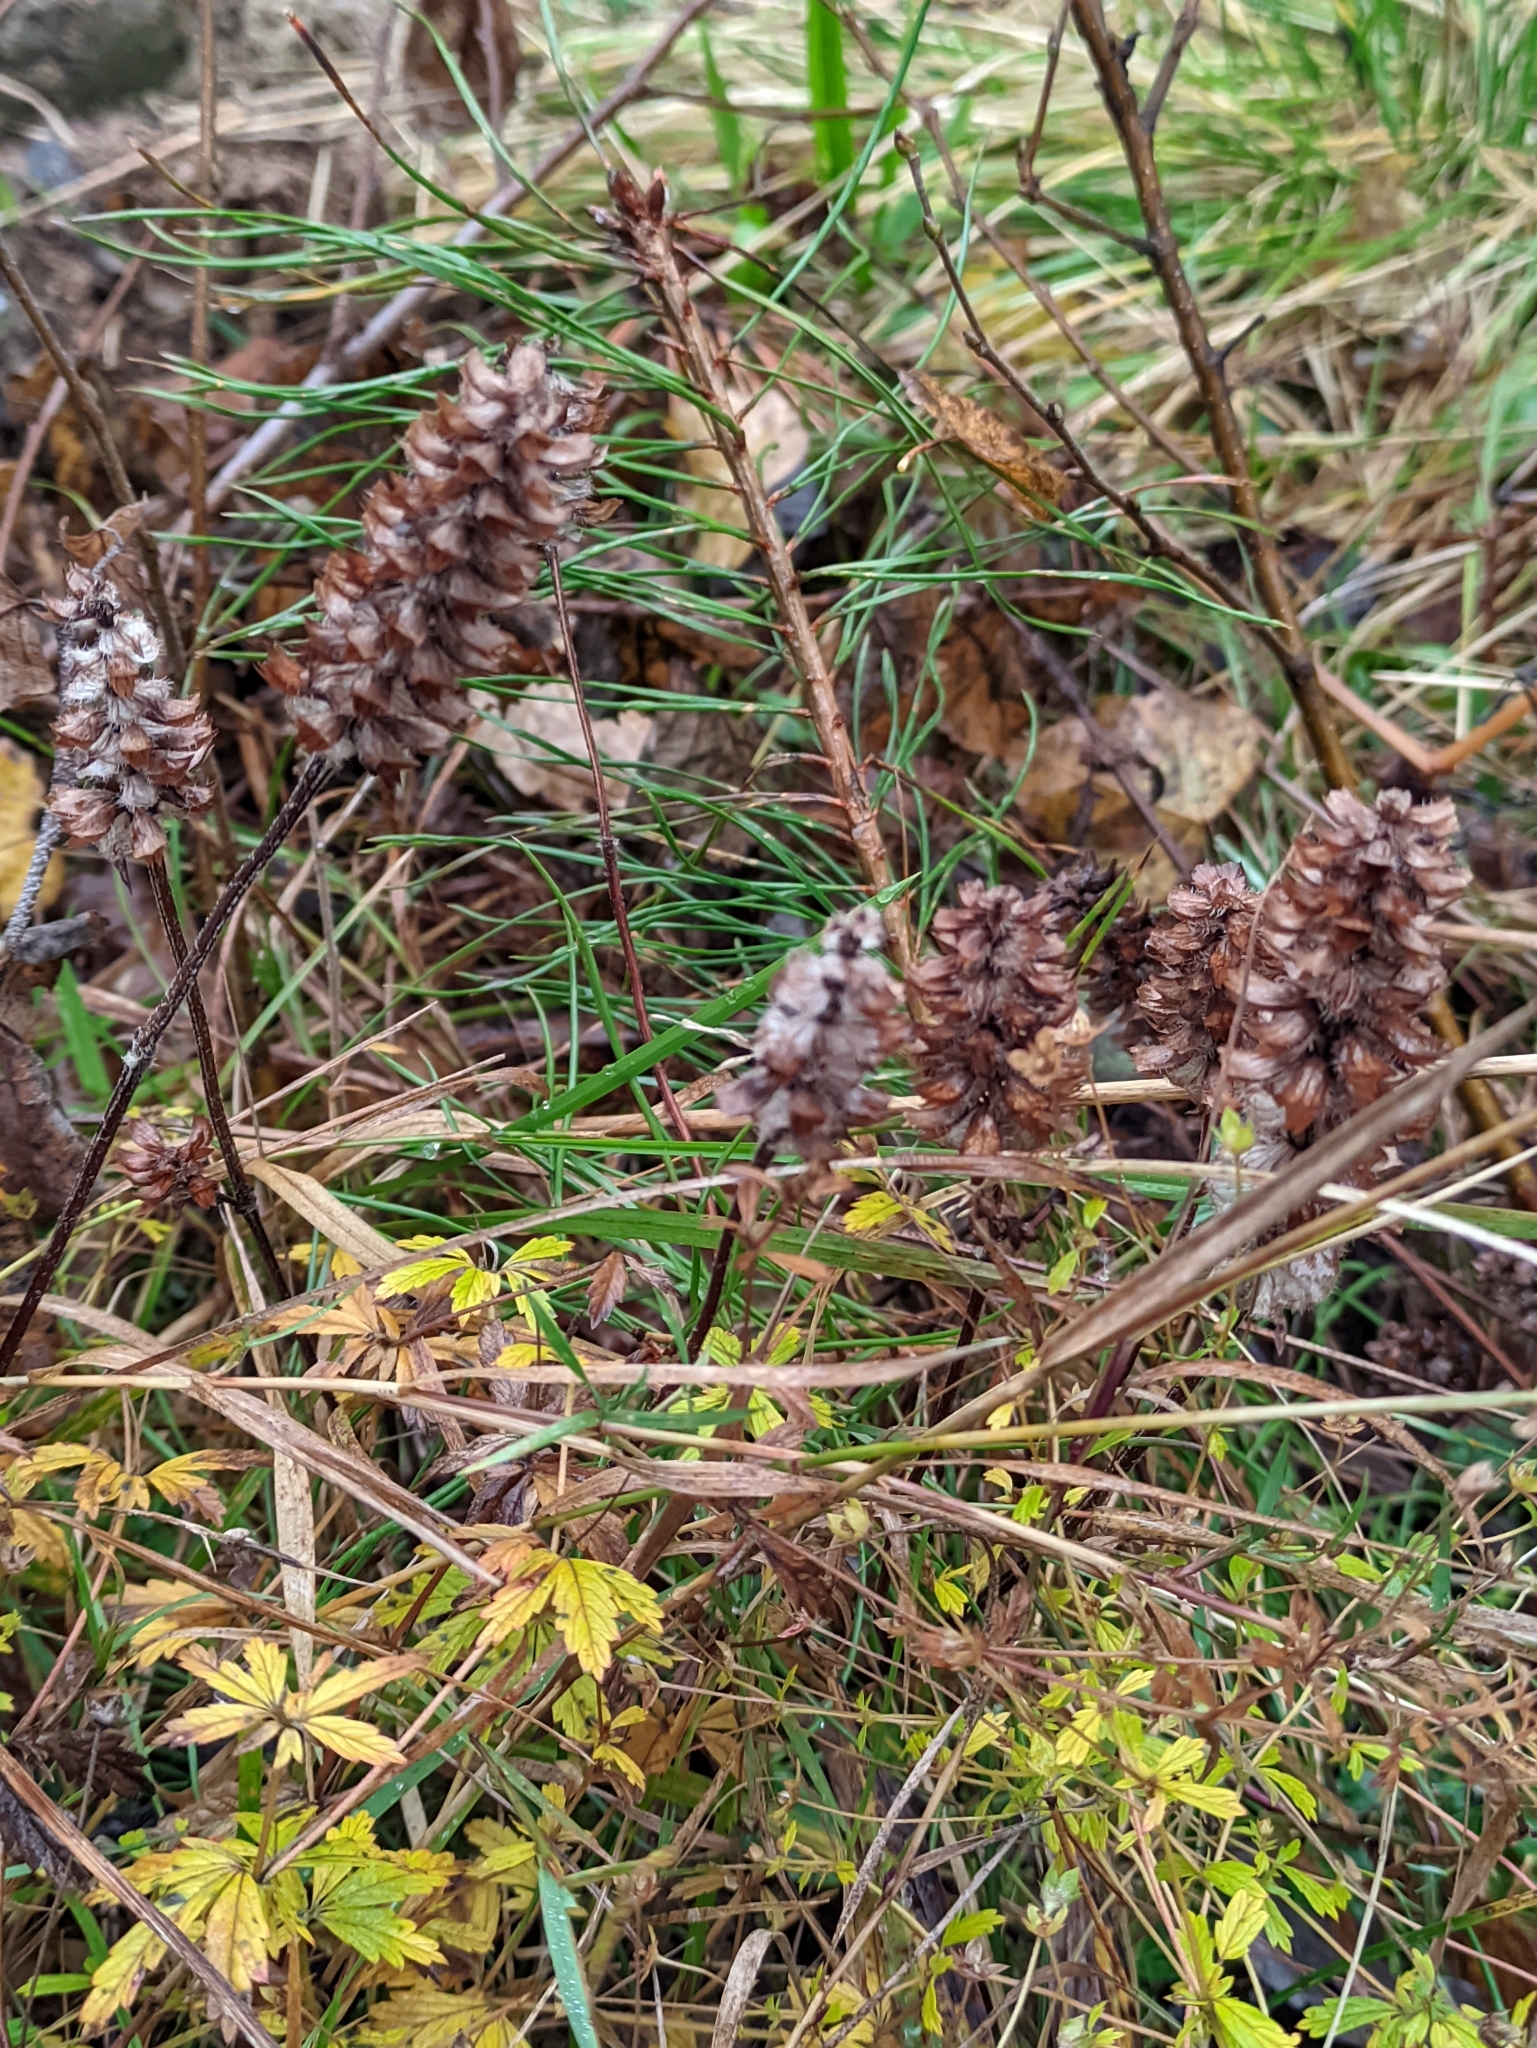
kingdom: Plantae
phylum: Tracheophyta
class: Magnoliopsida
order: Lamiales
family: Lamiaceae
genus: Prunella
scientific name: Prunella vulgaris
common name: Heal-all
